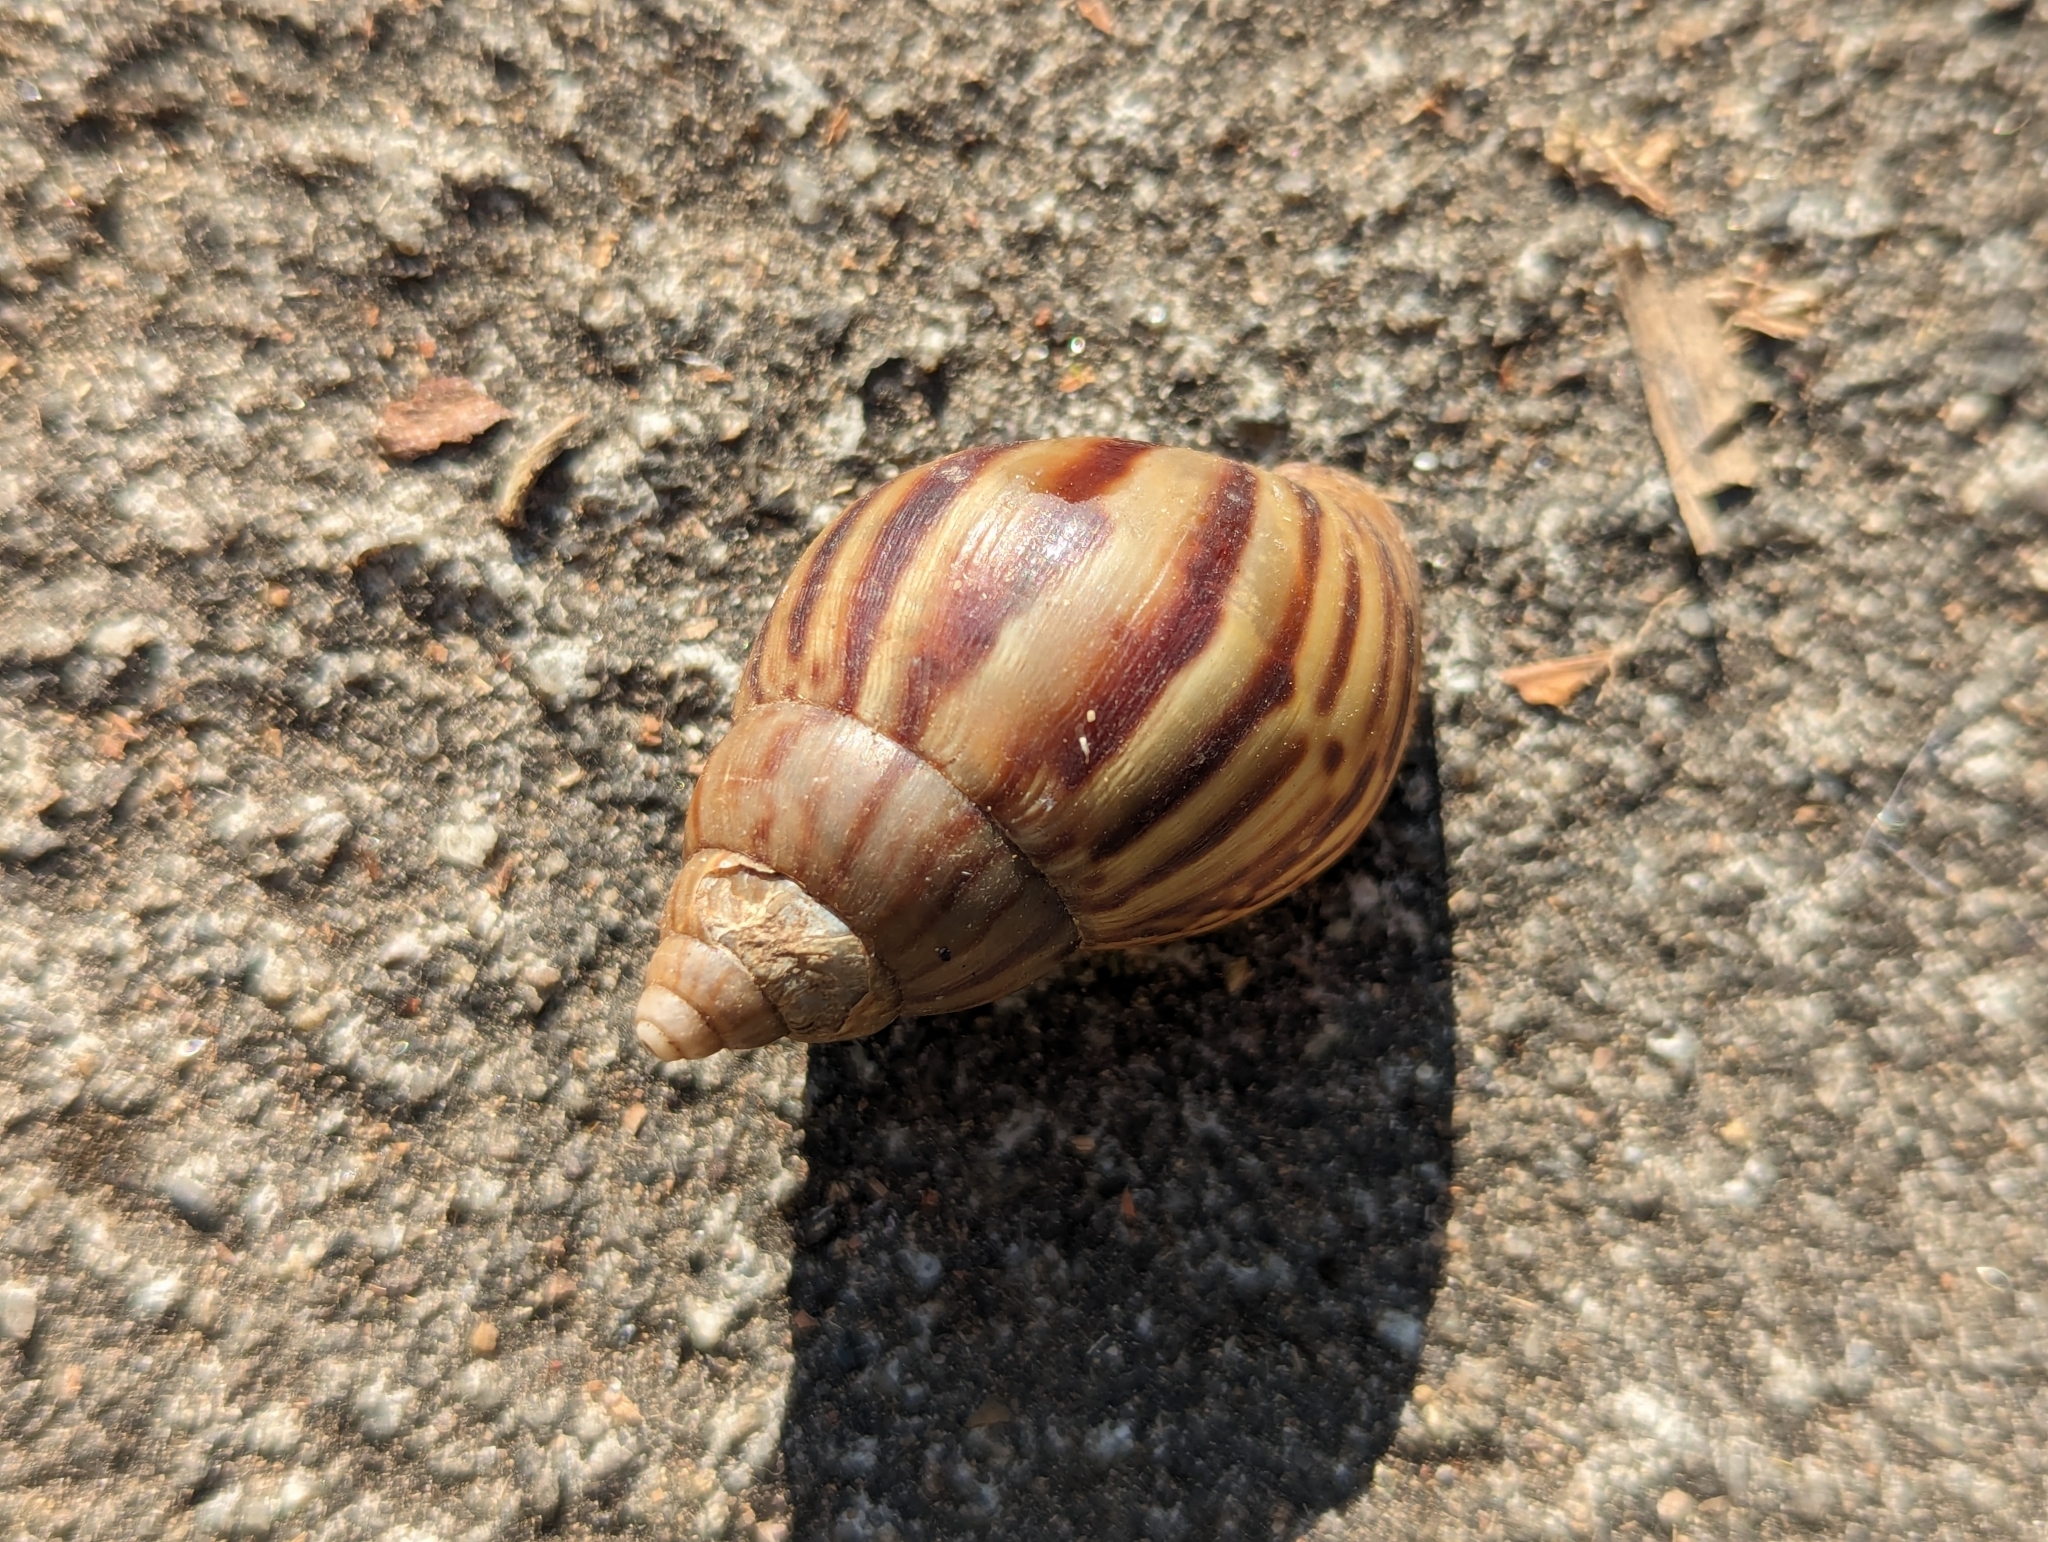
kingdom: Animalia
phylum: Mollusca
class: Gastropoda
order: Stylommatophora
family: Achatinidae
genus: Lissachatina
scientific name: Lissachatina fulica
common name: Giant african snail
